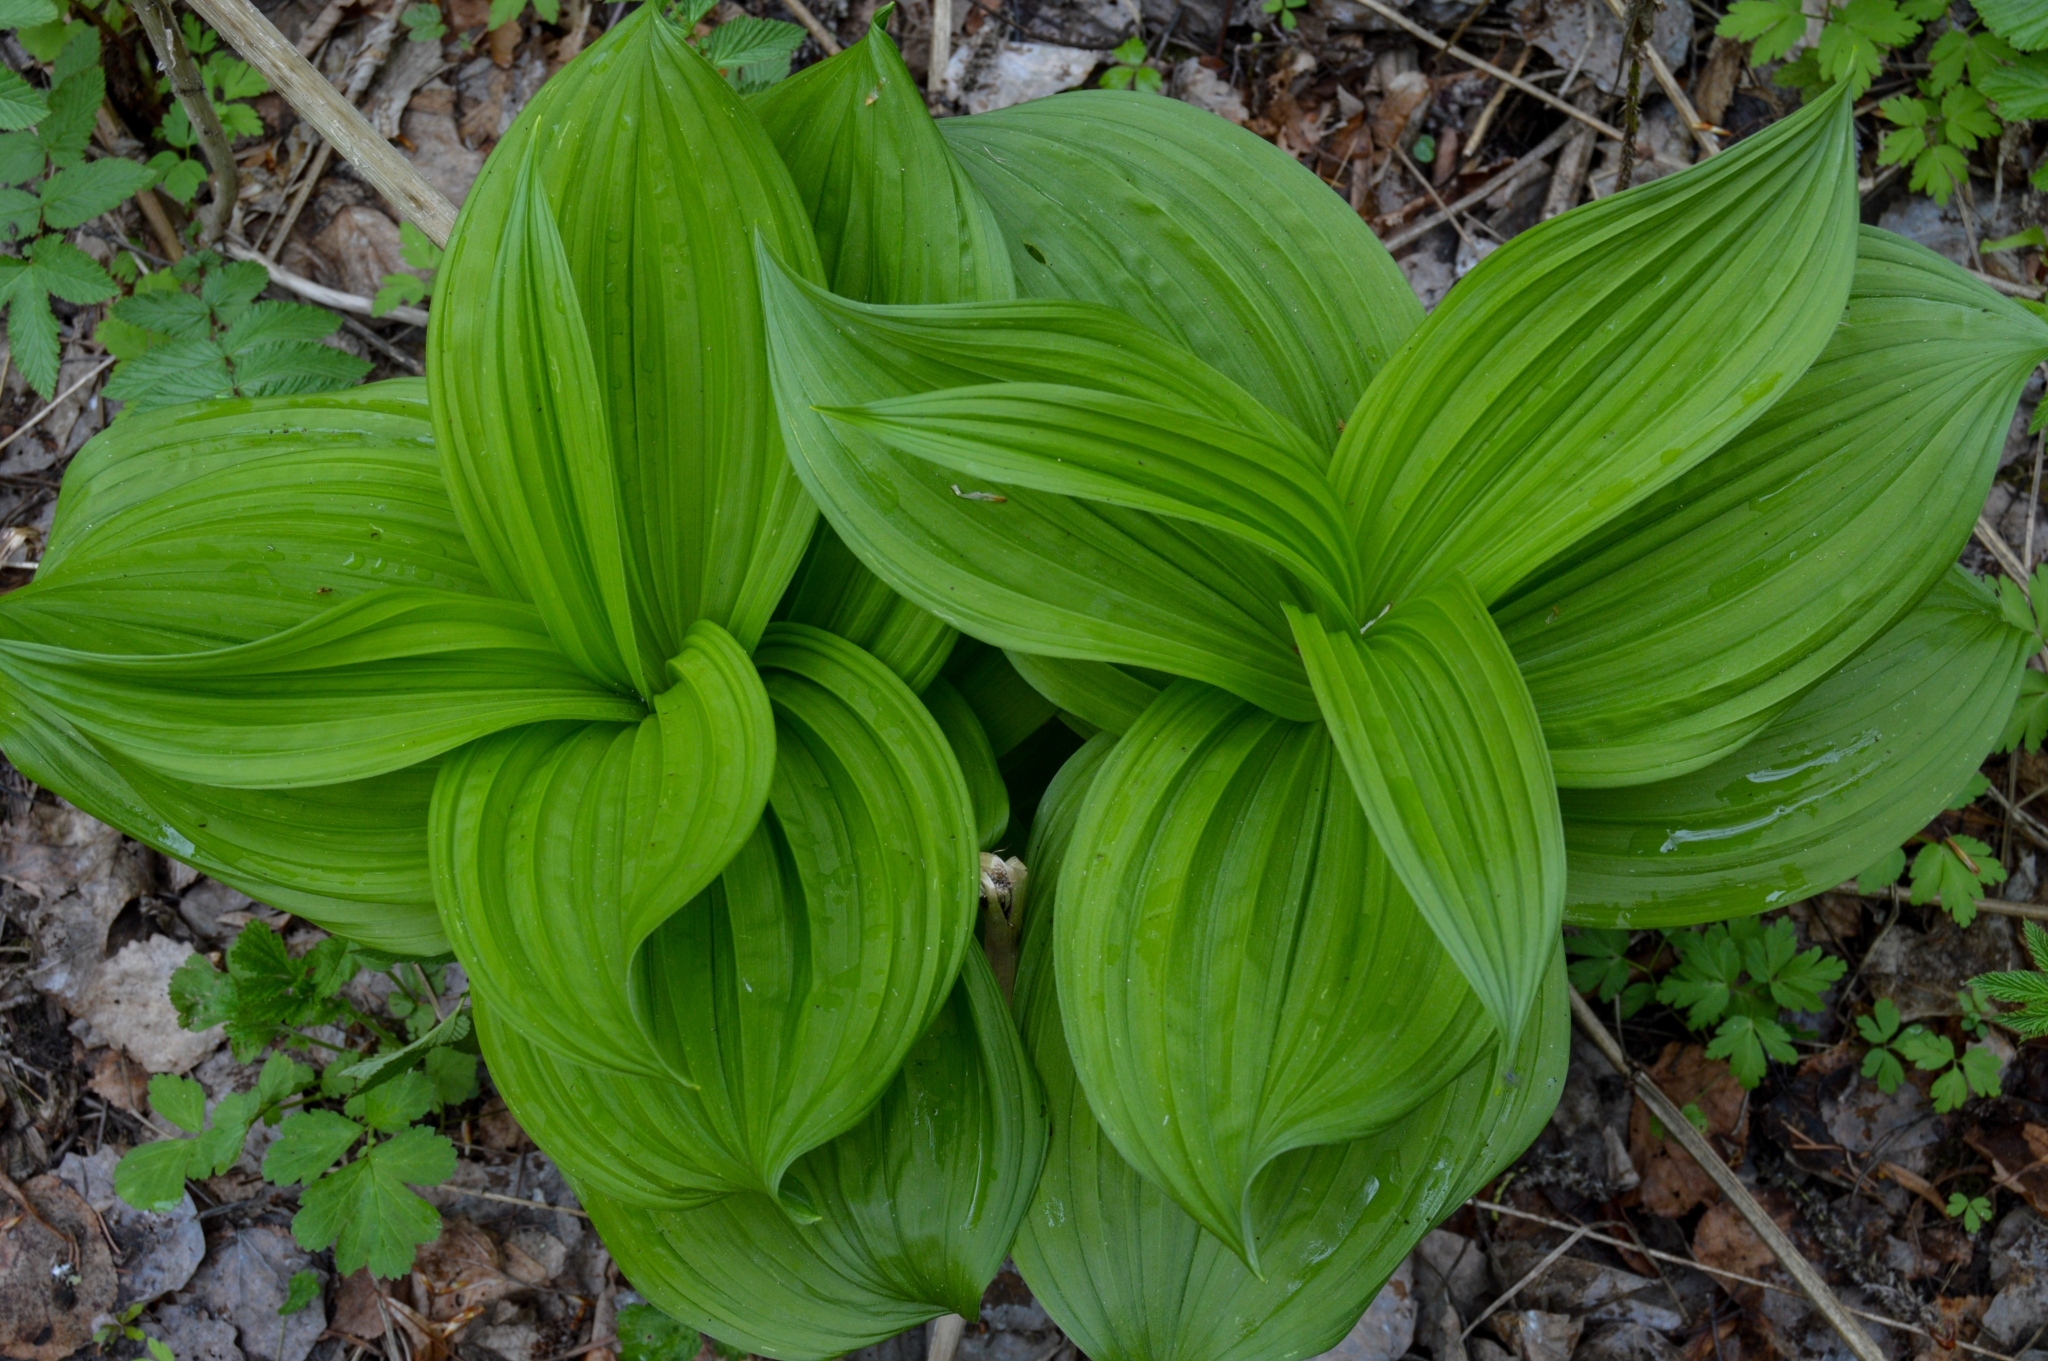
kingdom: Plantae
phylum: Tracheophyta
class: Liliopsida
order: Liliales
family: Melanthiaceae
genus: Veratrum
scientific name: Veratrum lobelianum
